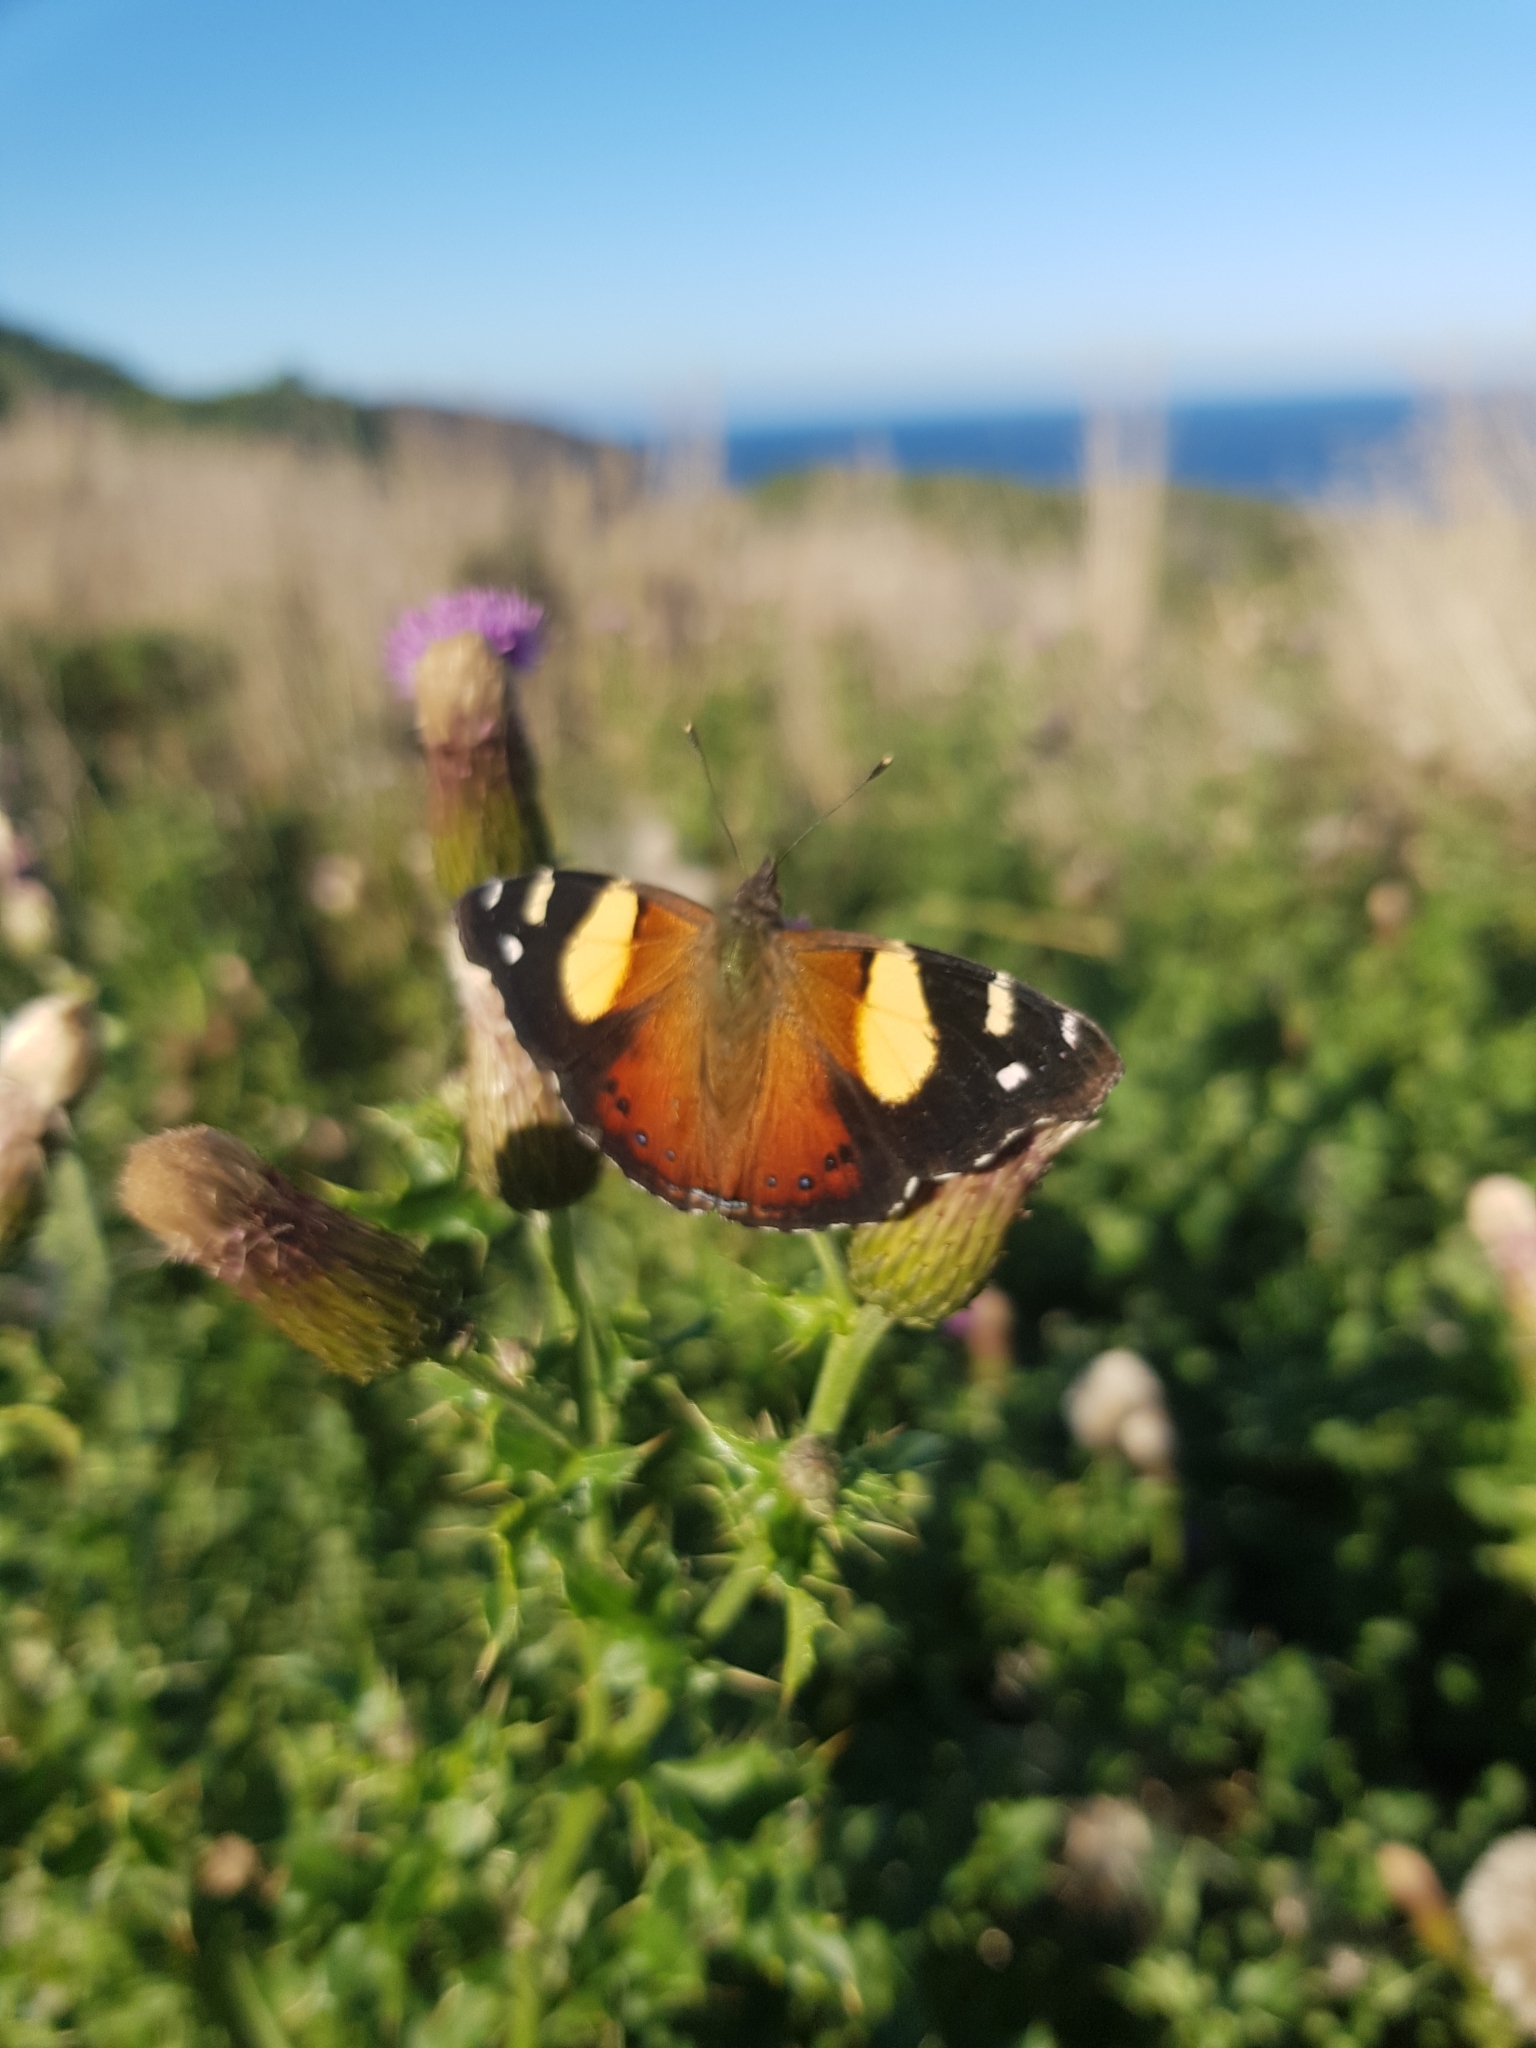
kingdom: Animalia
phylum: Arthropoda
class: Insecta
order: Lepidoptera
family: Nymphalidae
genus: Vanessa
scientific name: Vanessa itea
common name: Yellow admiral
